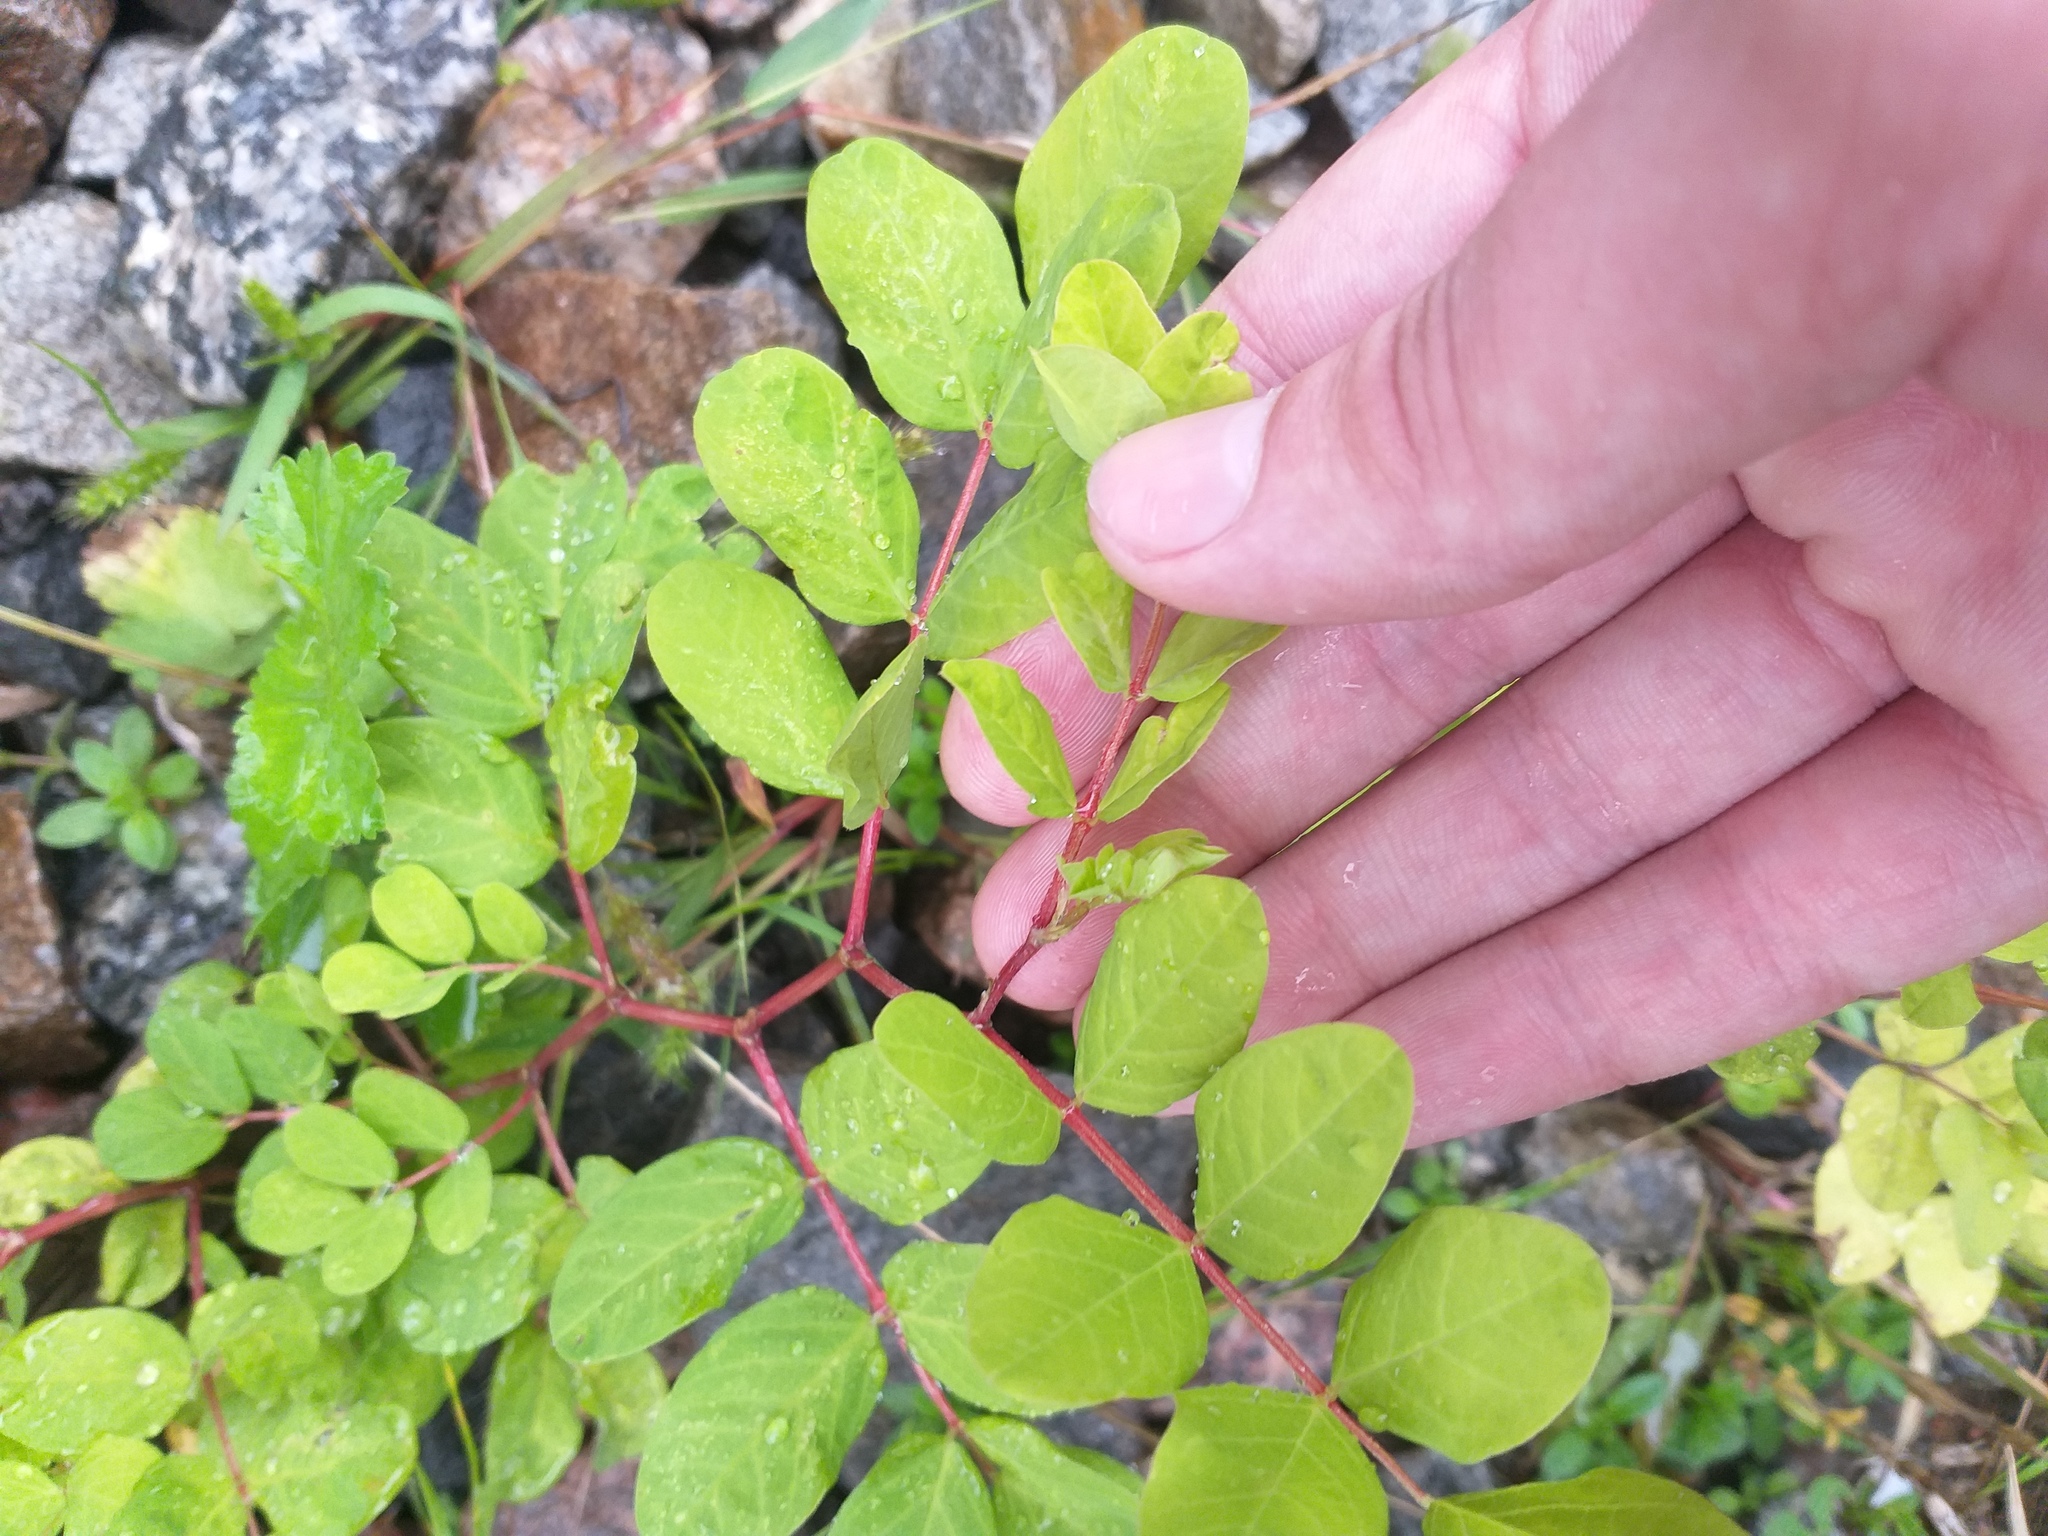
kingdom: Plantae
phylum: Tracheophyta
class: Magnoliopsida
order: Fabales
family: Fabaceae
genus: Astragalus
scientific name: Astragalus glycyphyllos
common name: Wild liquorice
